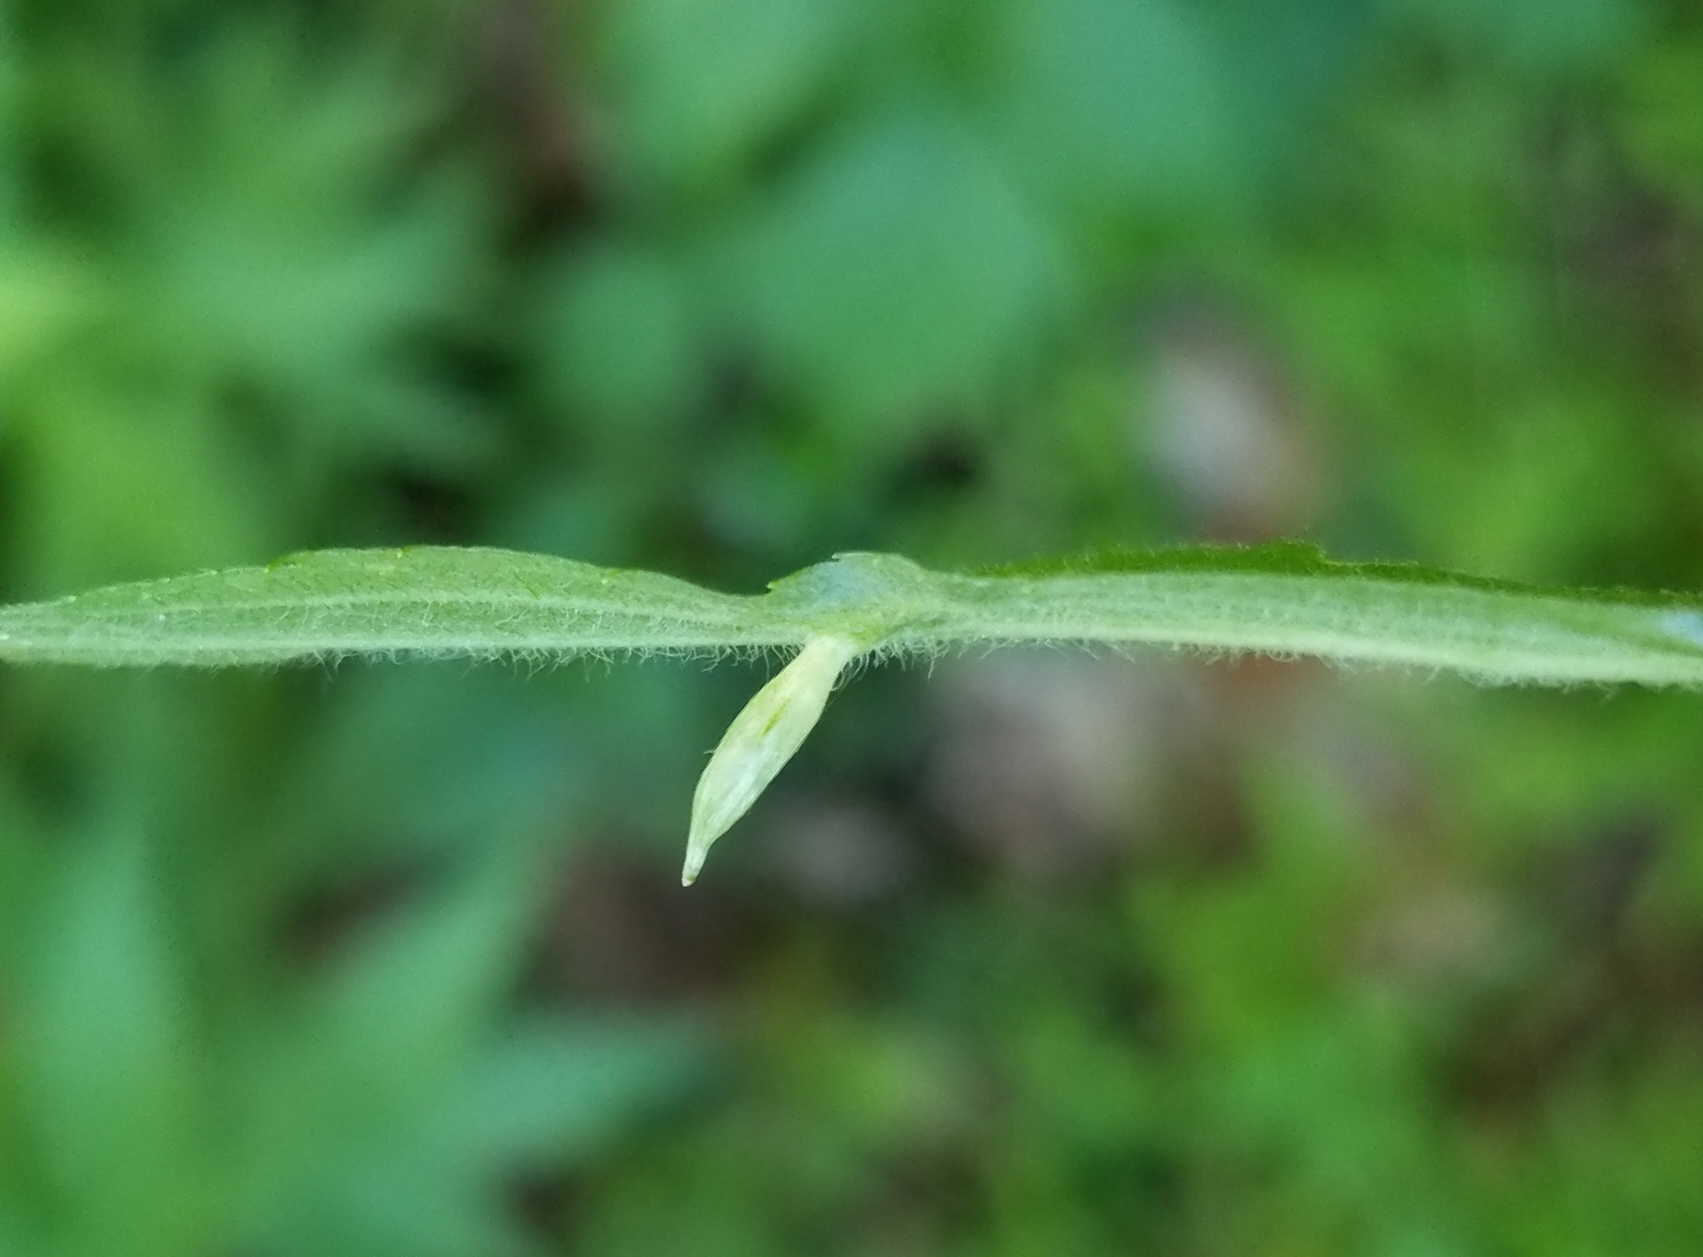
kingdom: Animalia
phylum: Arthropoda
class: Insecta
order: Diptera
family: Cecidomyiidae
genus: Rhopalomyia
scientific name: Rhopalomyia clarkei
